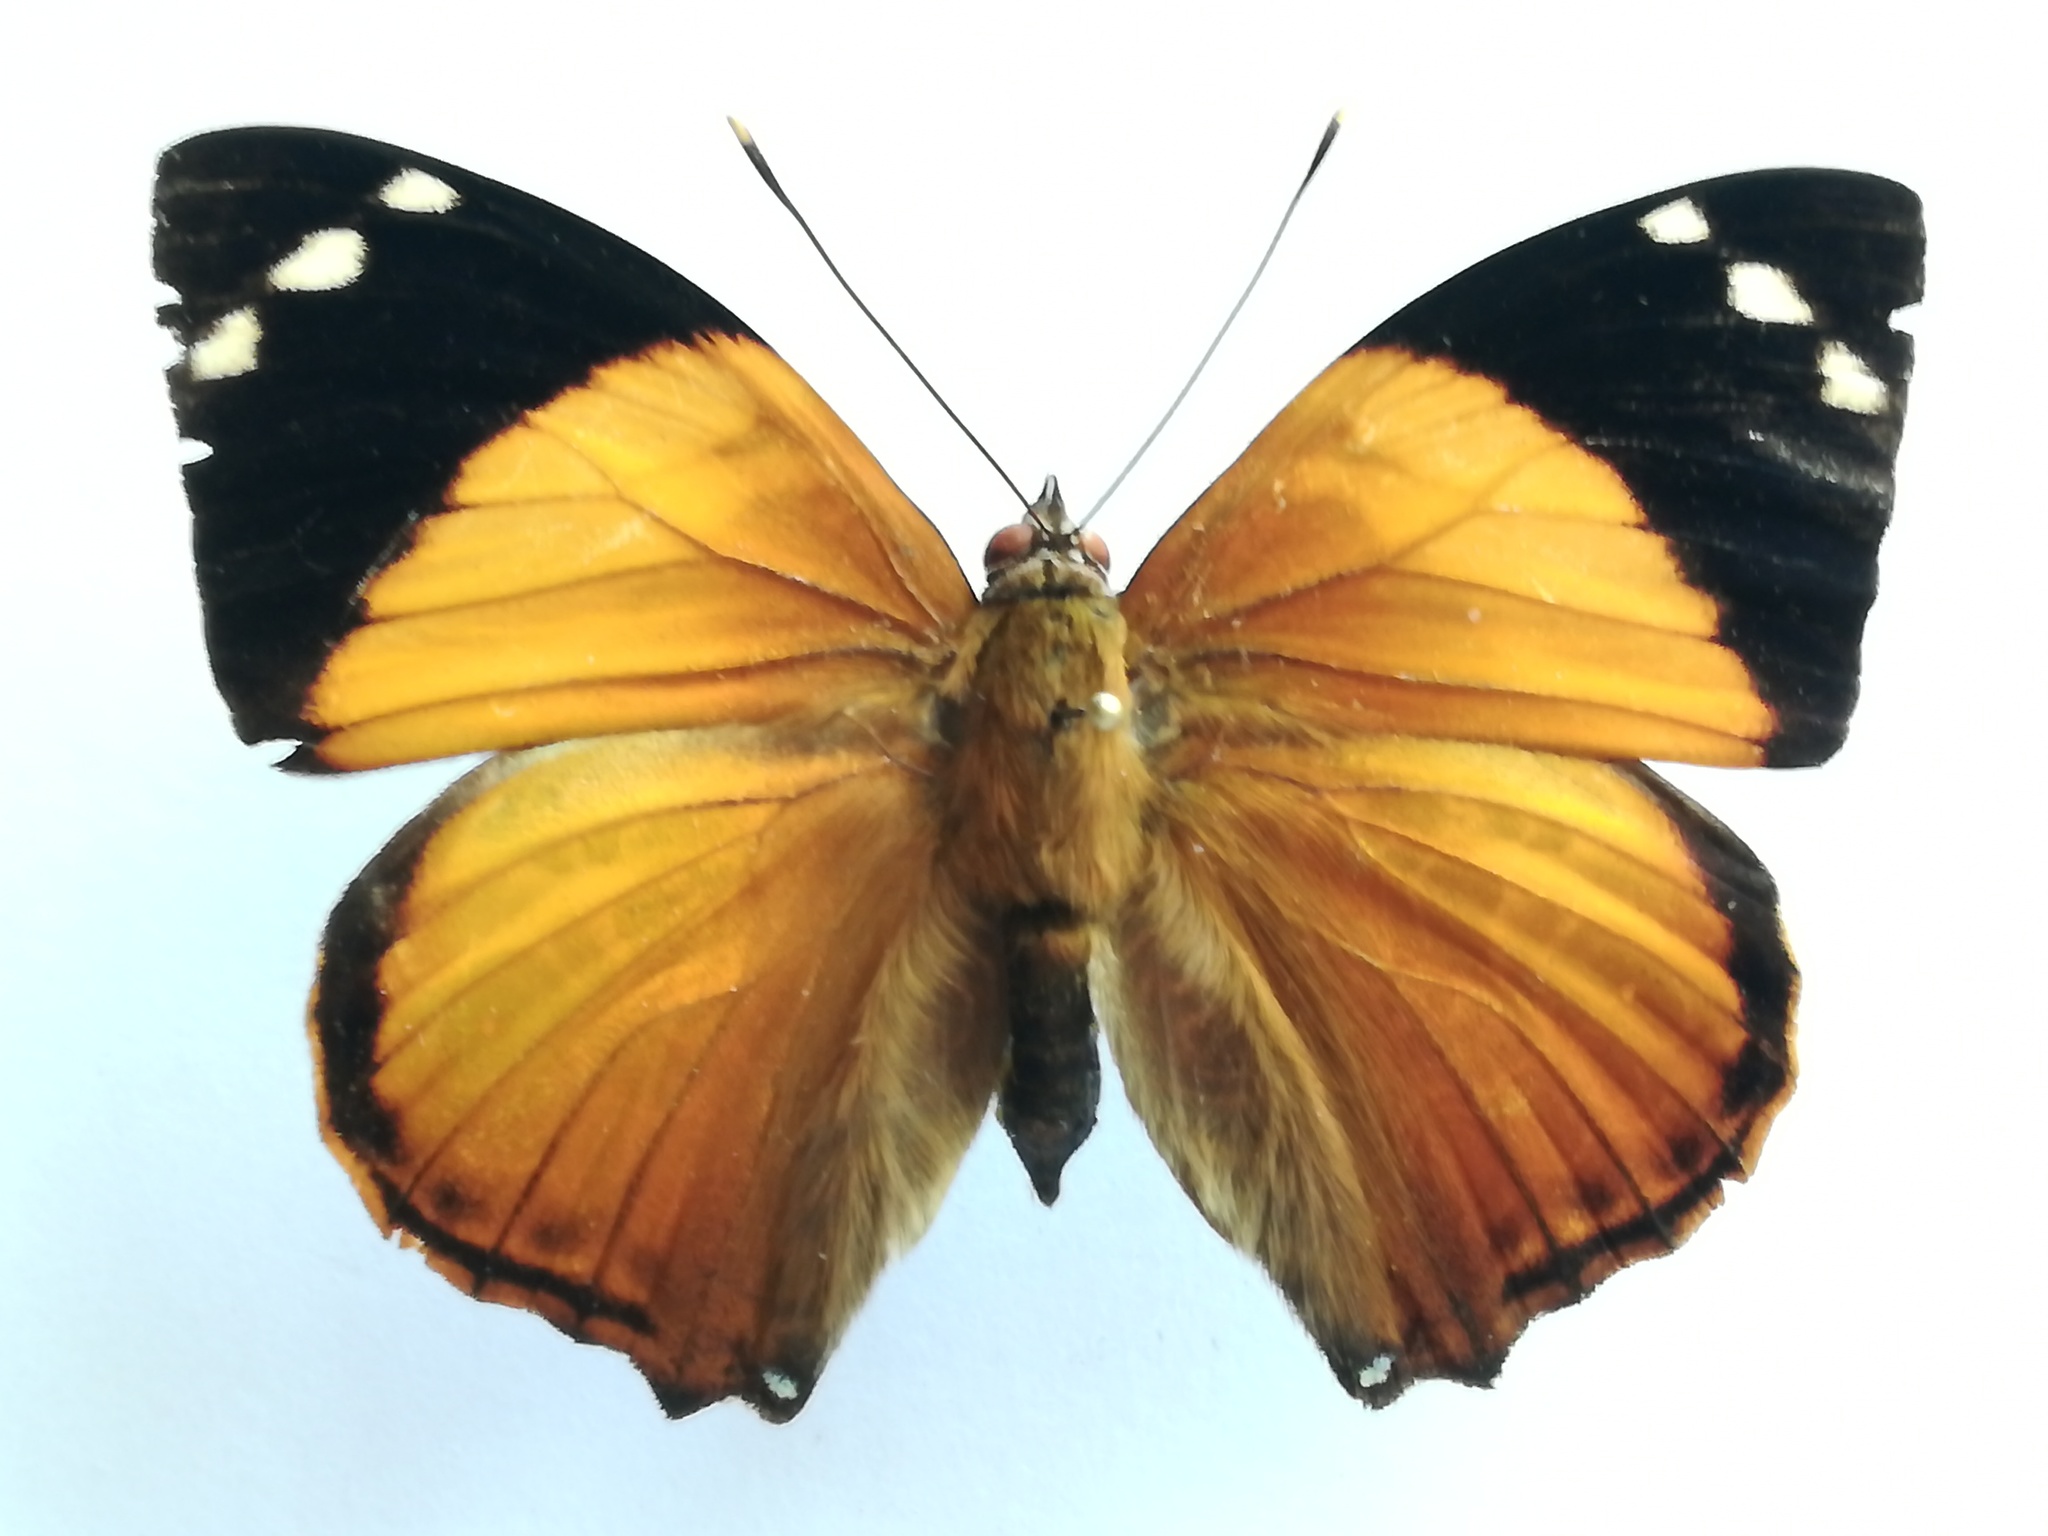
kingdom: Animalia
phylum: Arthropoda
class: Insecta
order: Lepidoptera
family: Nymphalidae
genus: Smyrna
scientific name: Smyrna blomfildia
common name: Blomfild's beauty
